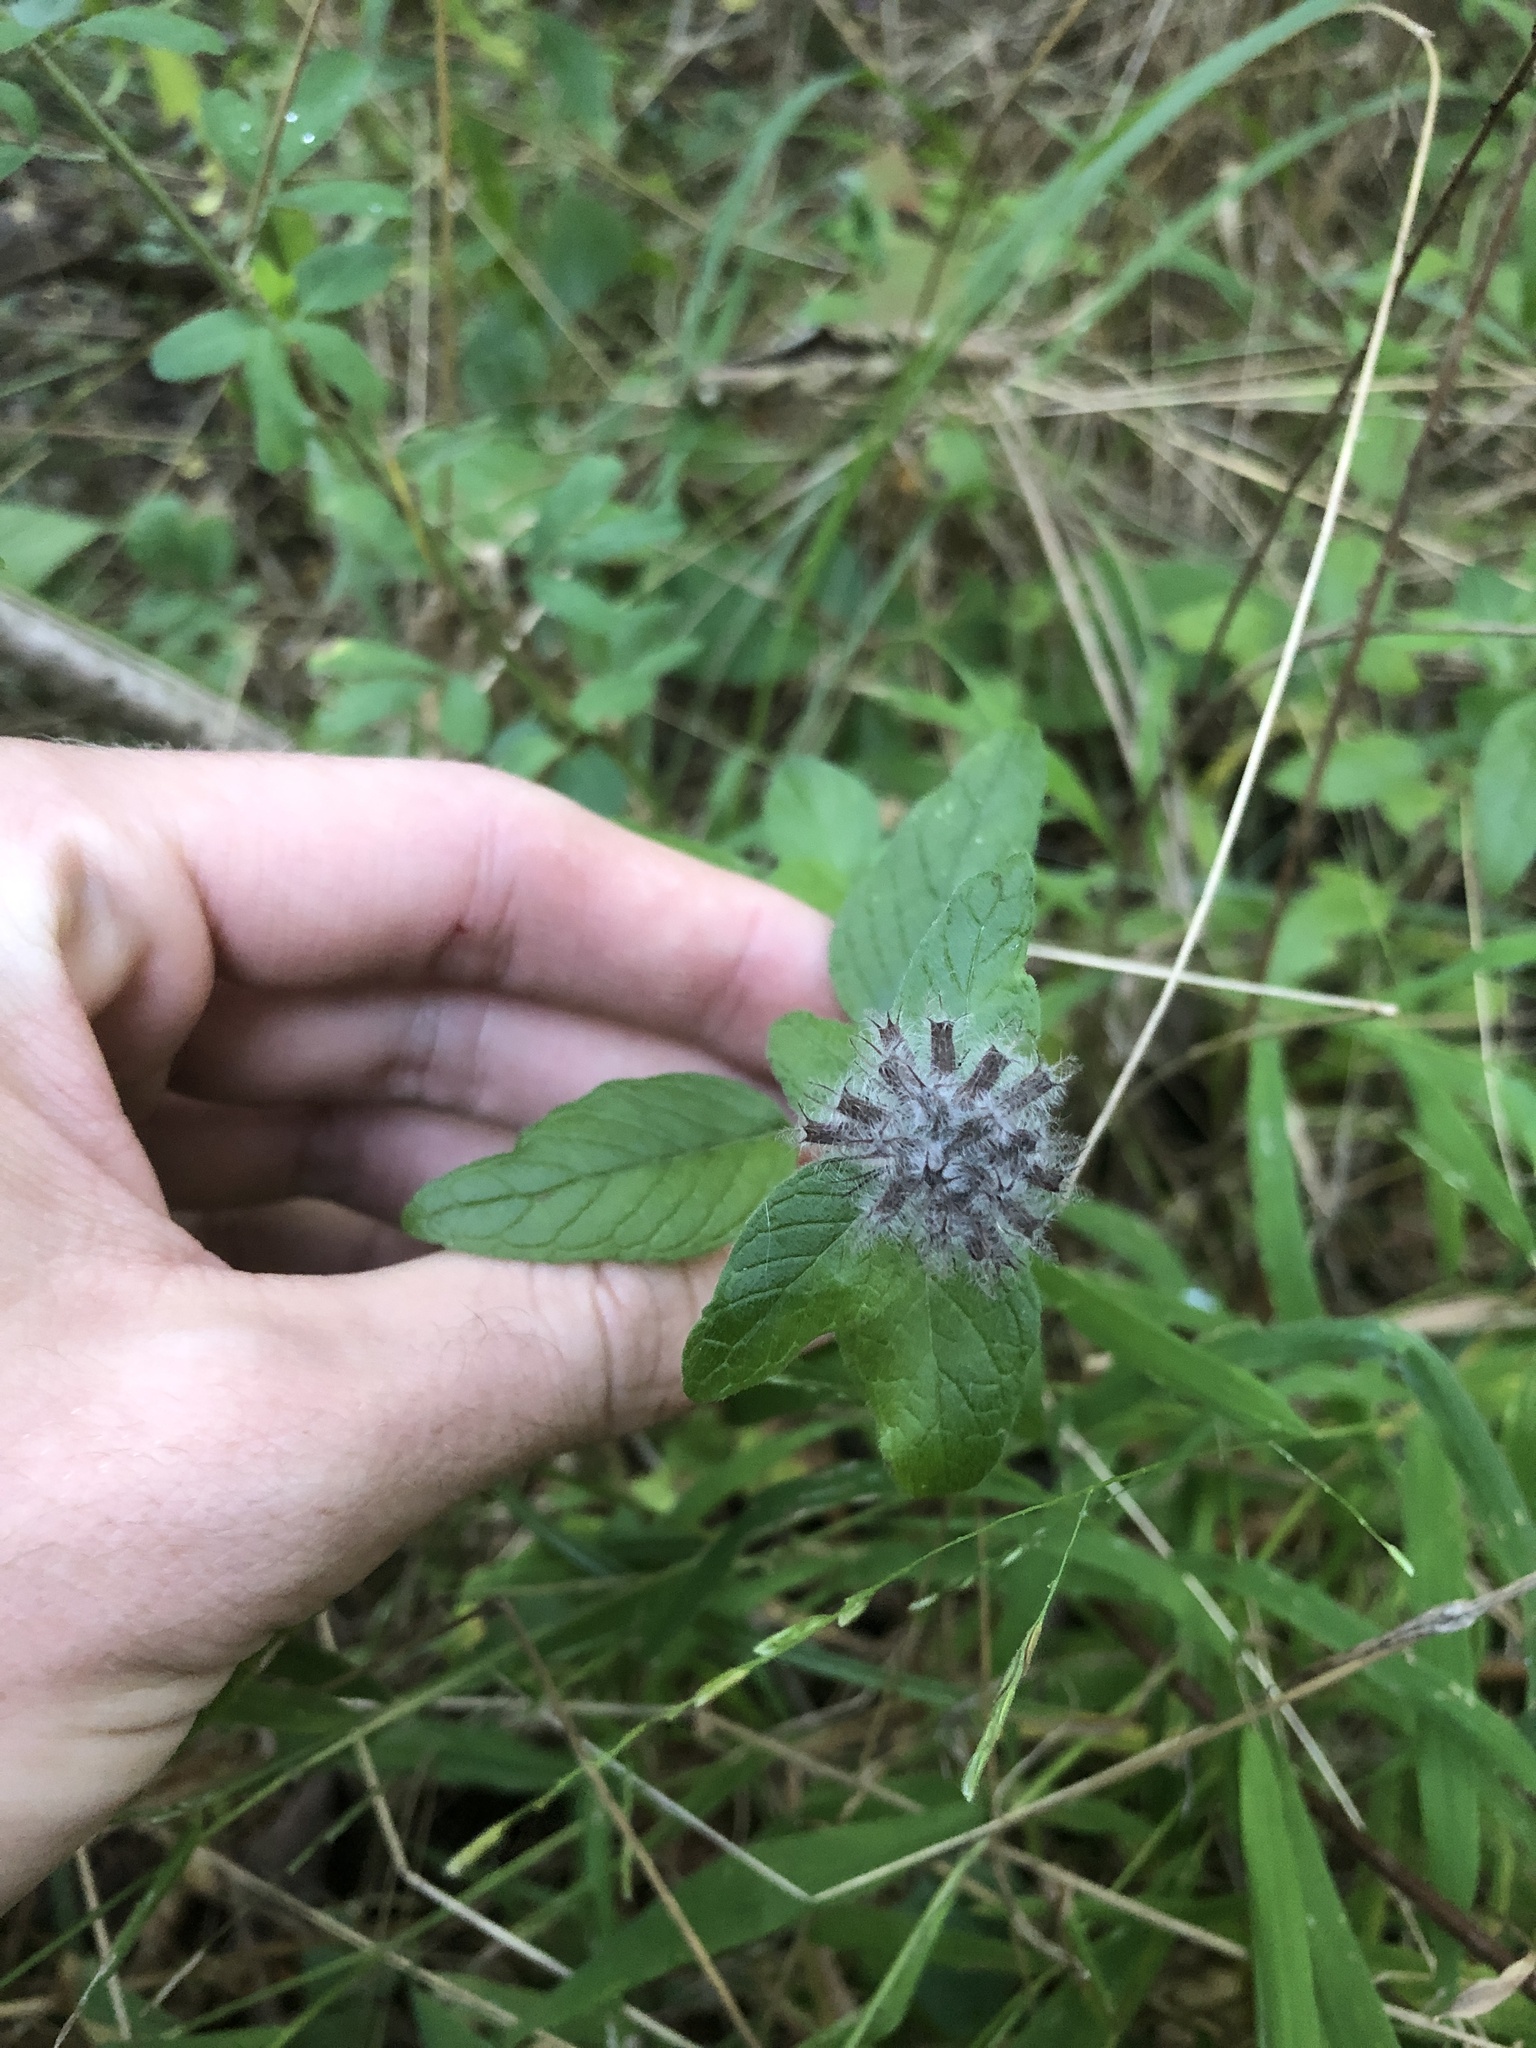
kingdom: Plantae
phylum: Tracheophyta
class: Magnoliopsida
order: Lamiales
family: Lamiaceae
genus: Clinopodium
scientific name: Clinopodium vulgare
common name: Wild basil
